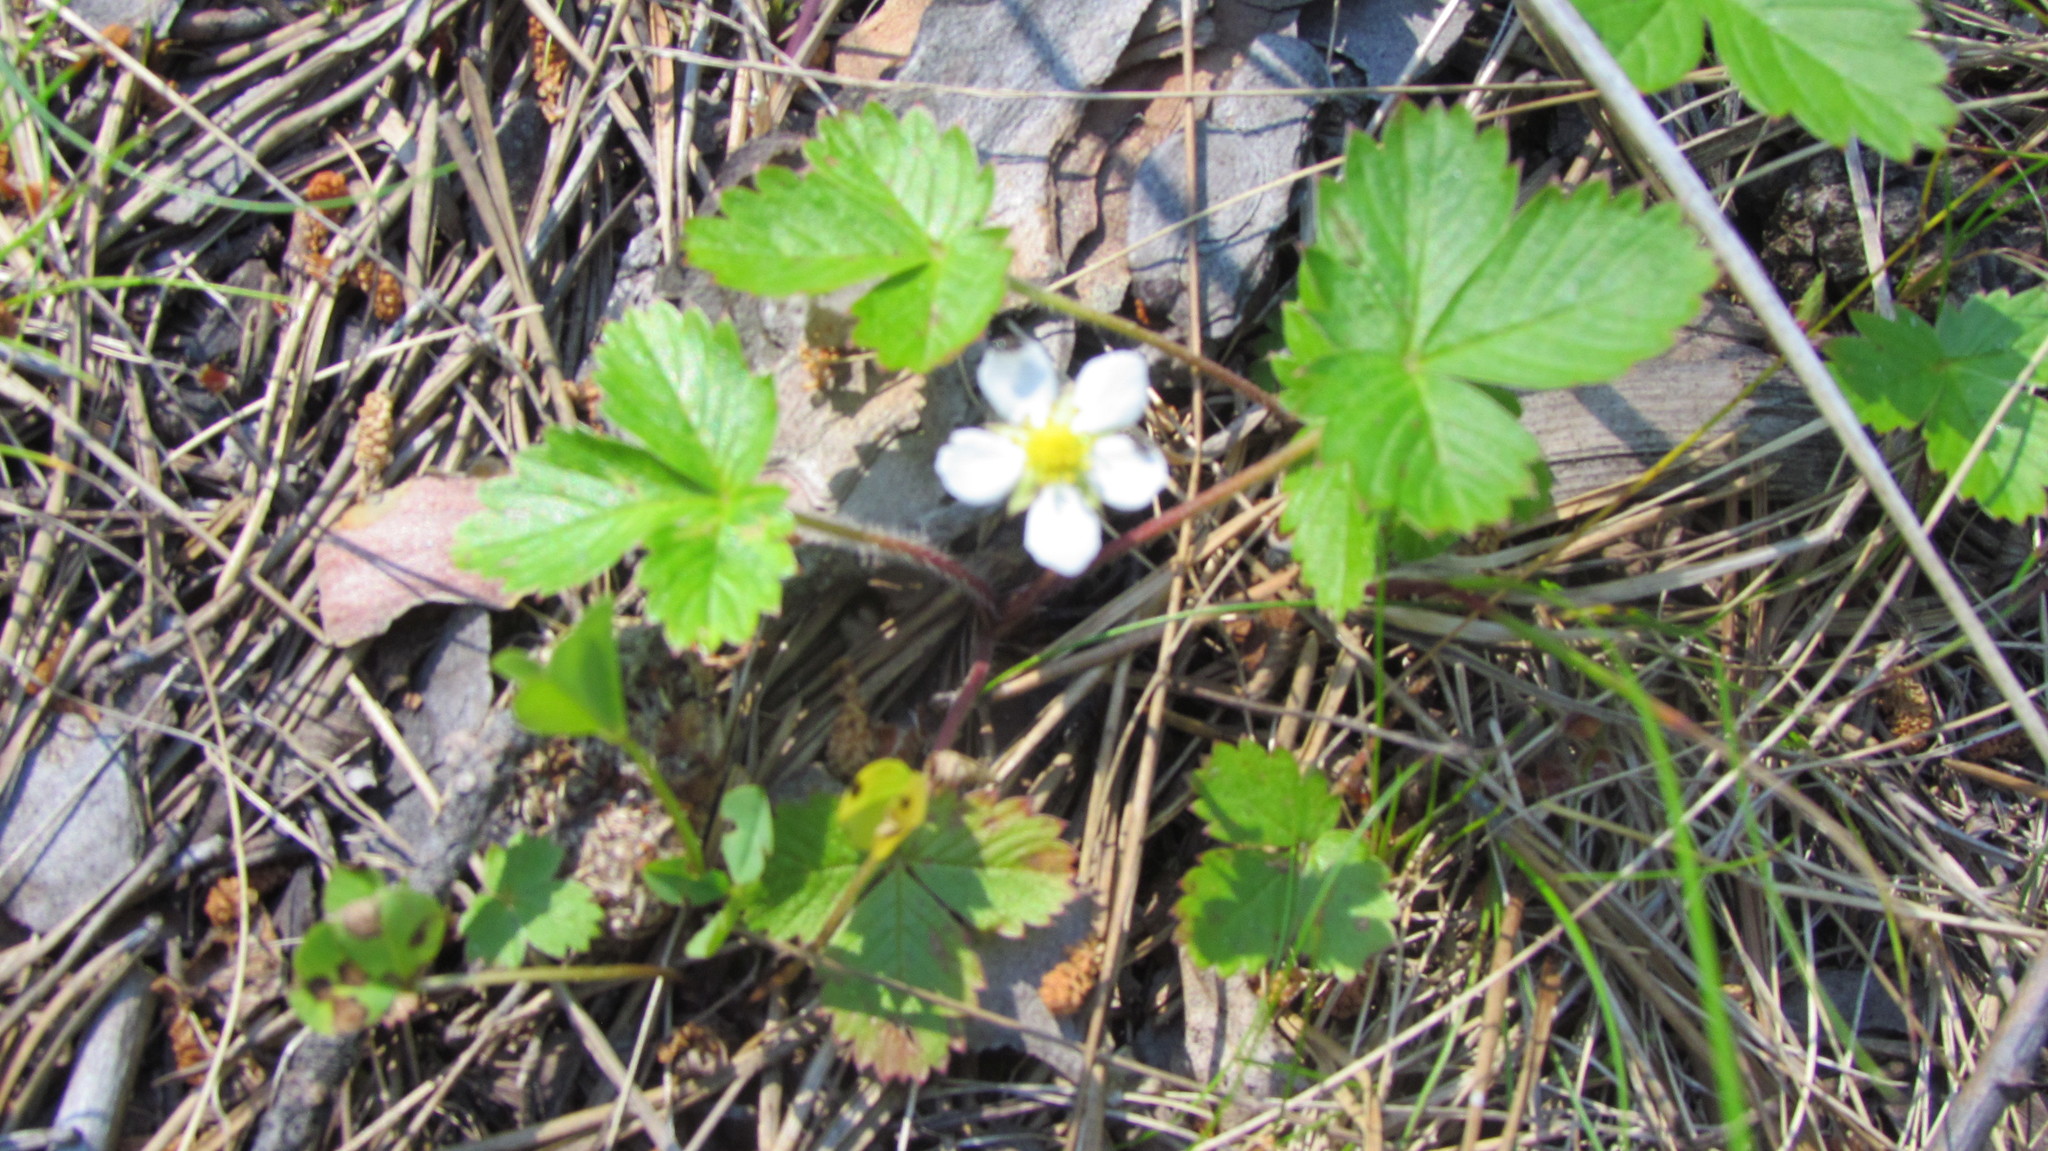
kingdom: Plantae
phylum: Tracheophyta
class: Magnoliopsida
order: Rosales
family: Rosaceae
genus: Fragaria
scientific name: Fragaria vesca
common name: Wild strawberry
